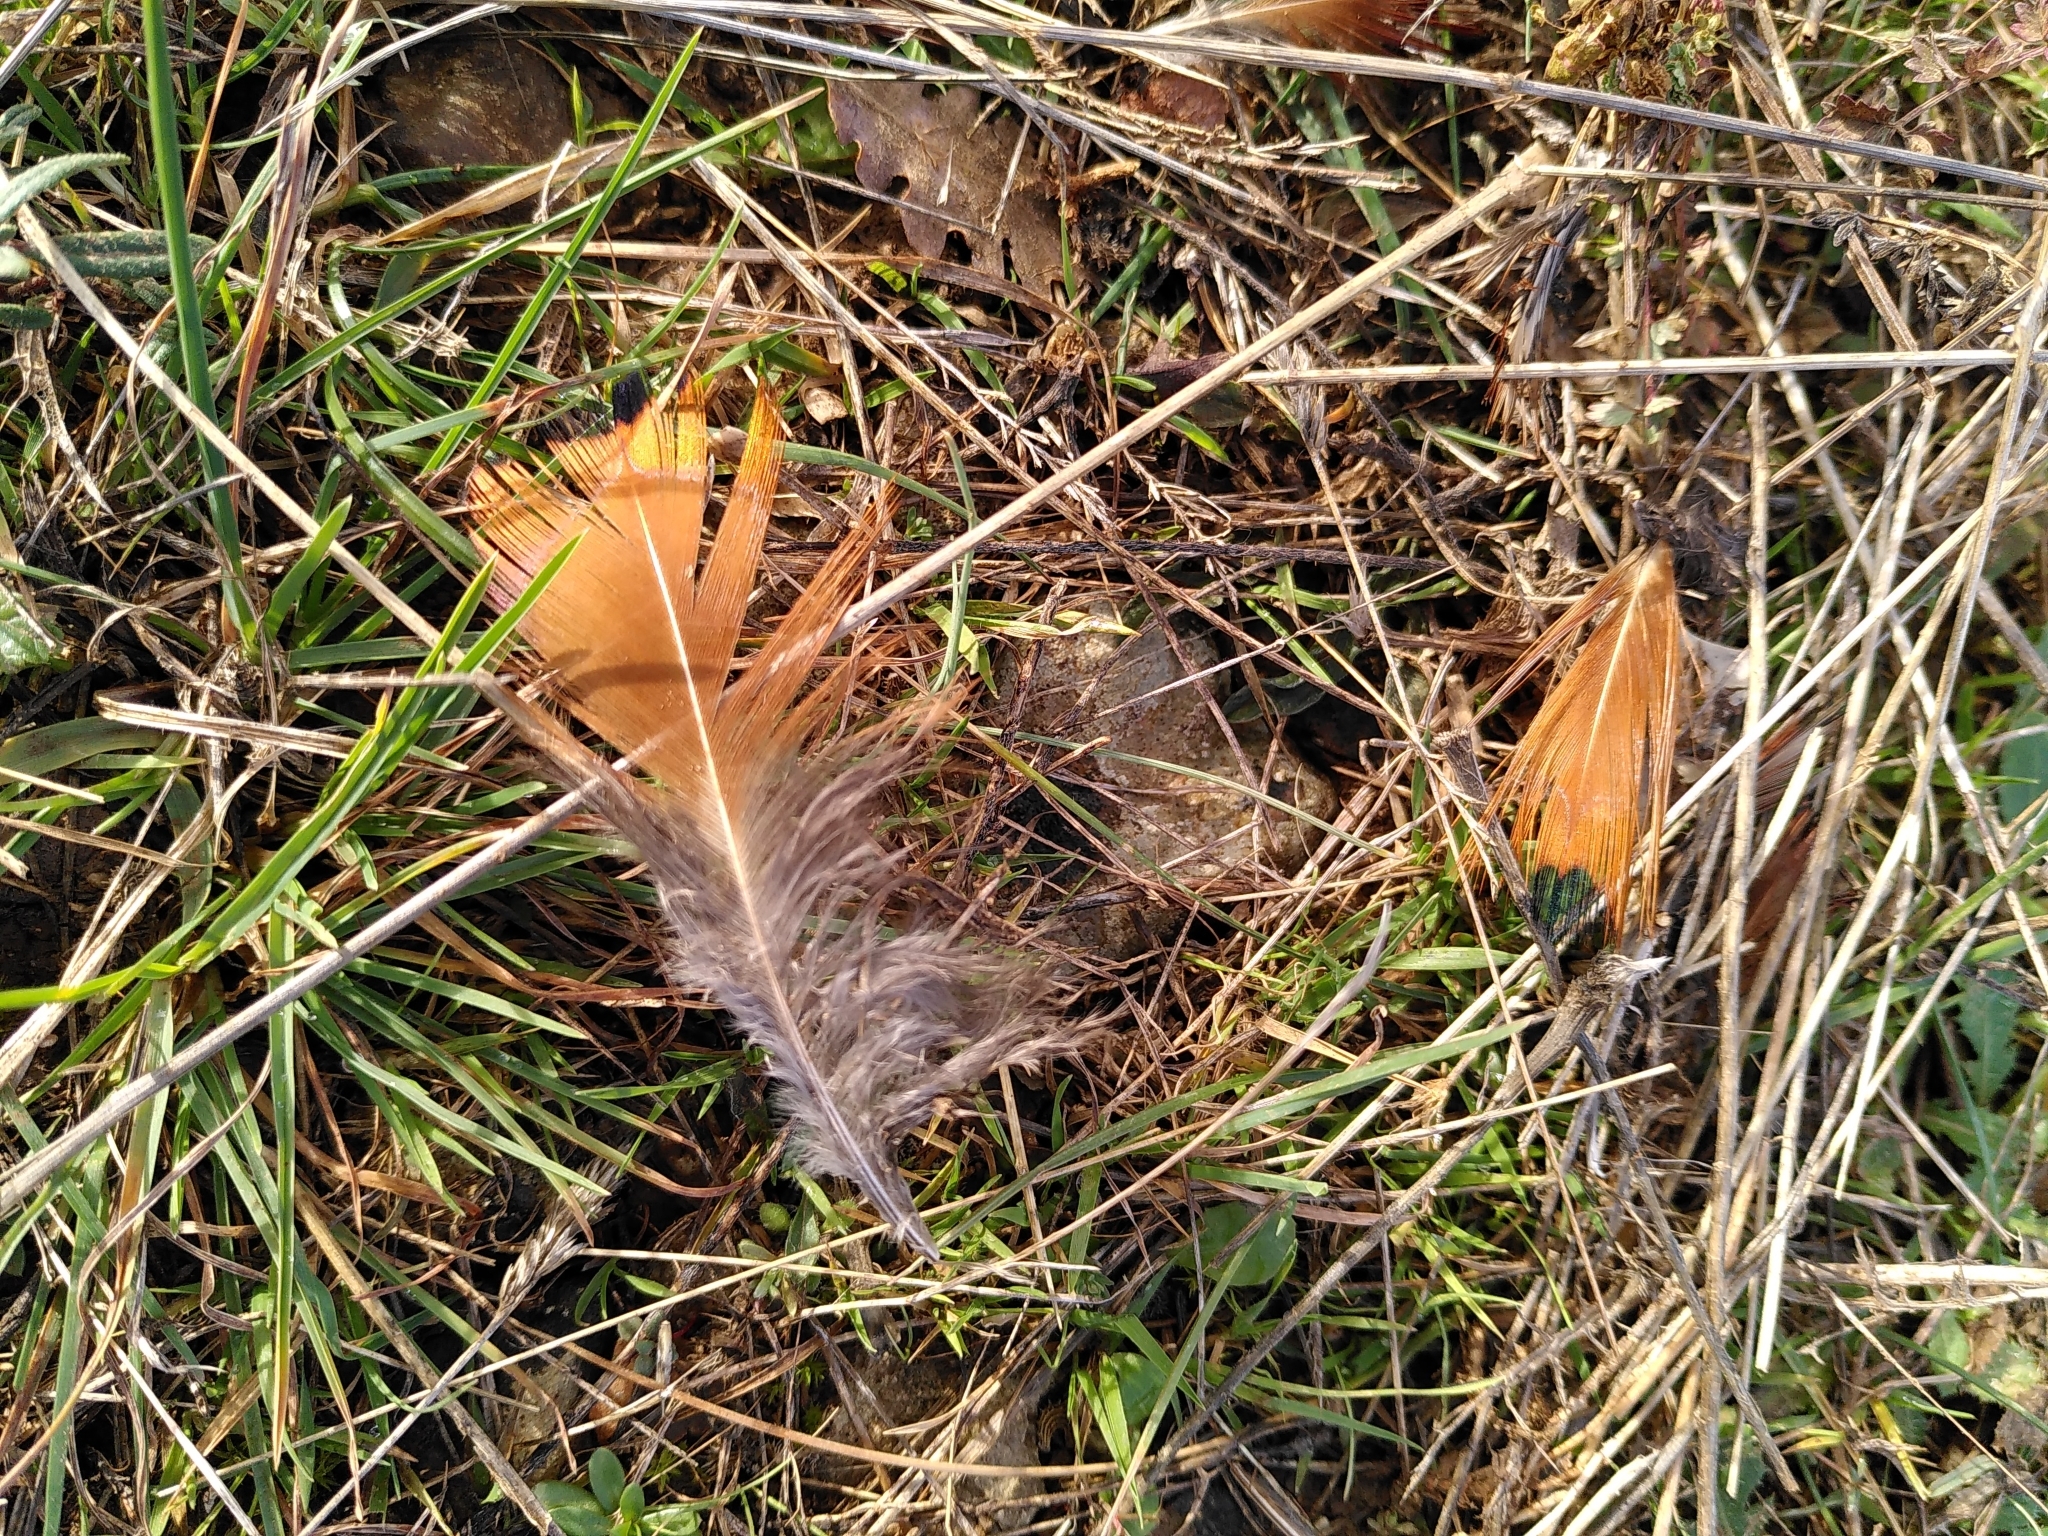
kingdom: Animalia
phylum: Chordata
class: Aves
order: Galliformes
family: Phasianidae
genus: Phasianus
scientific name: Phasianus colchicus
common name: Common pheasant
